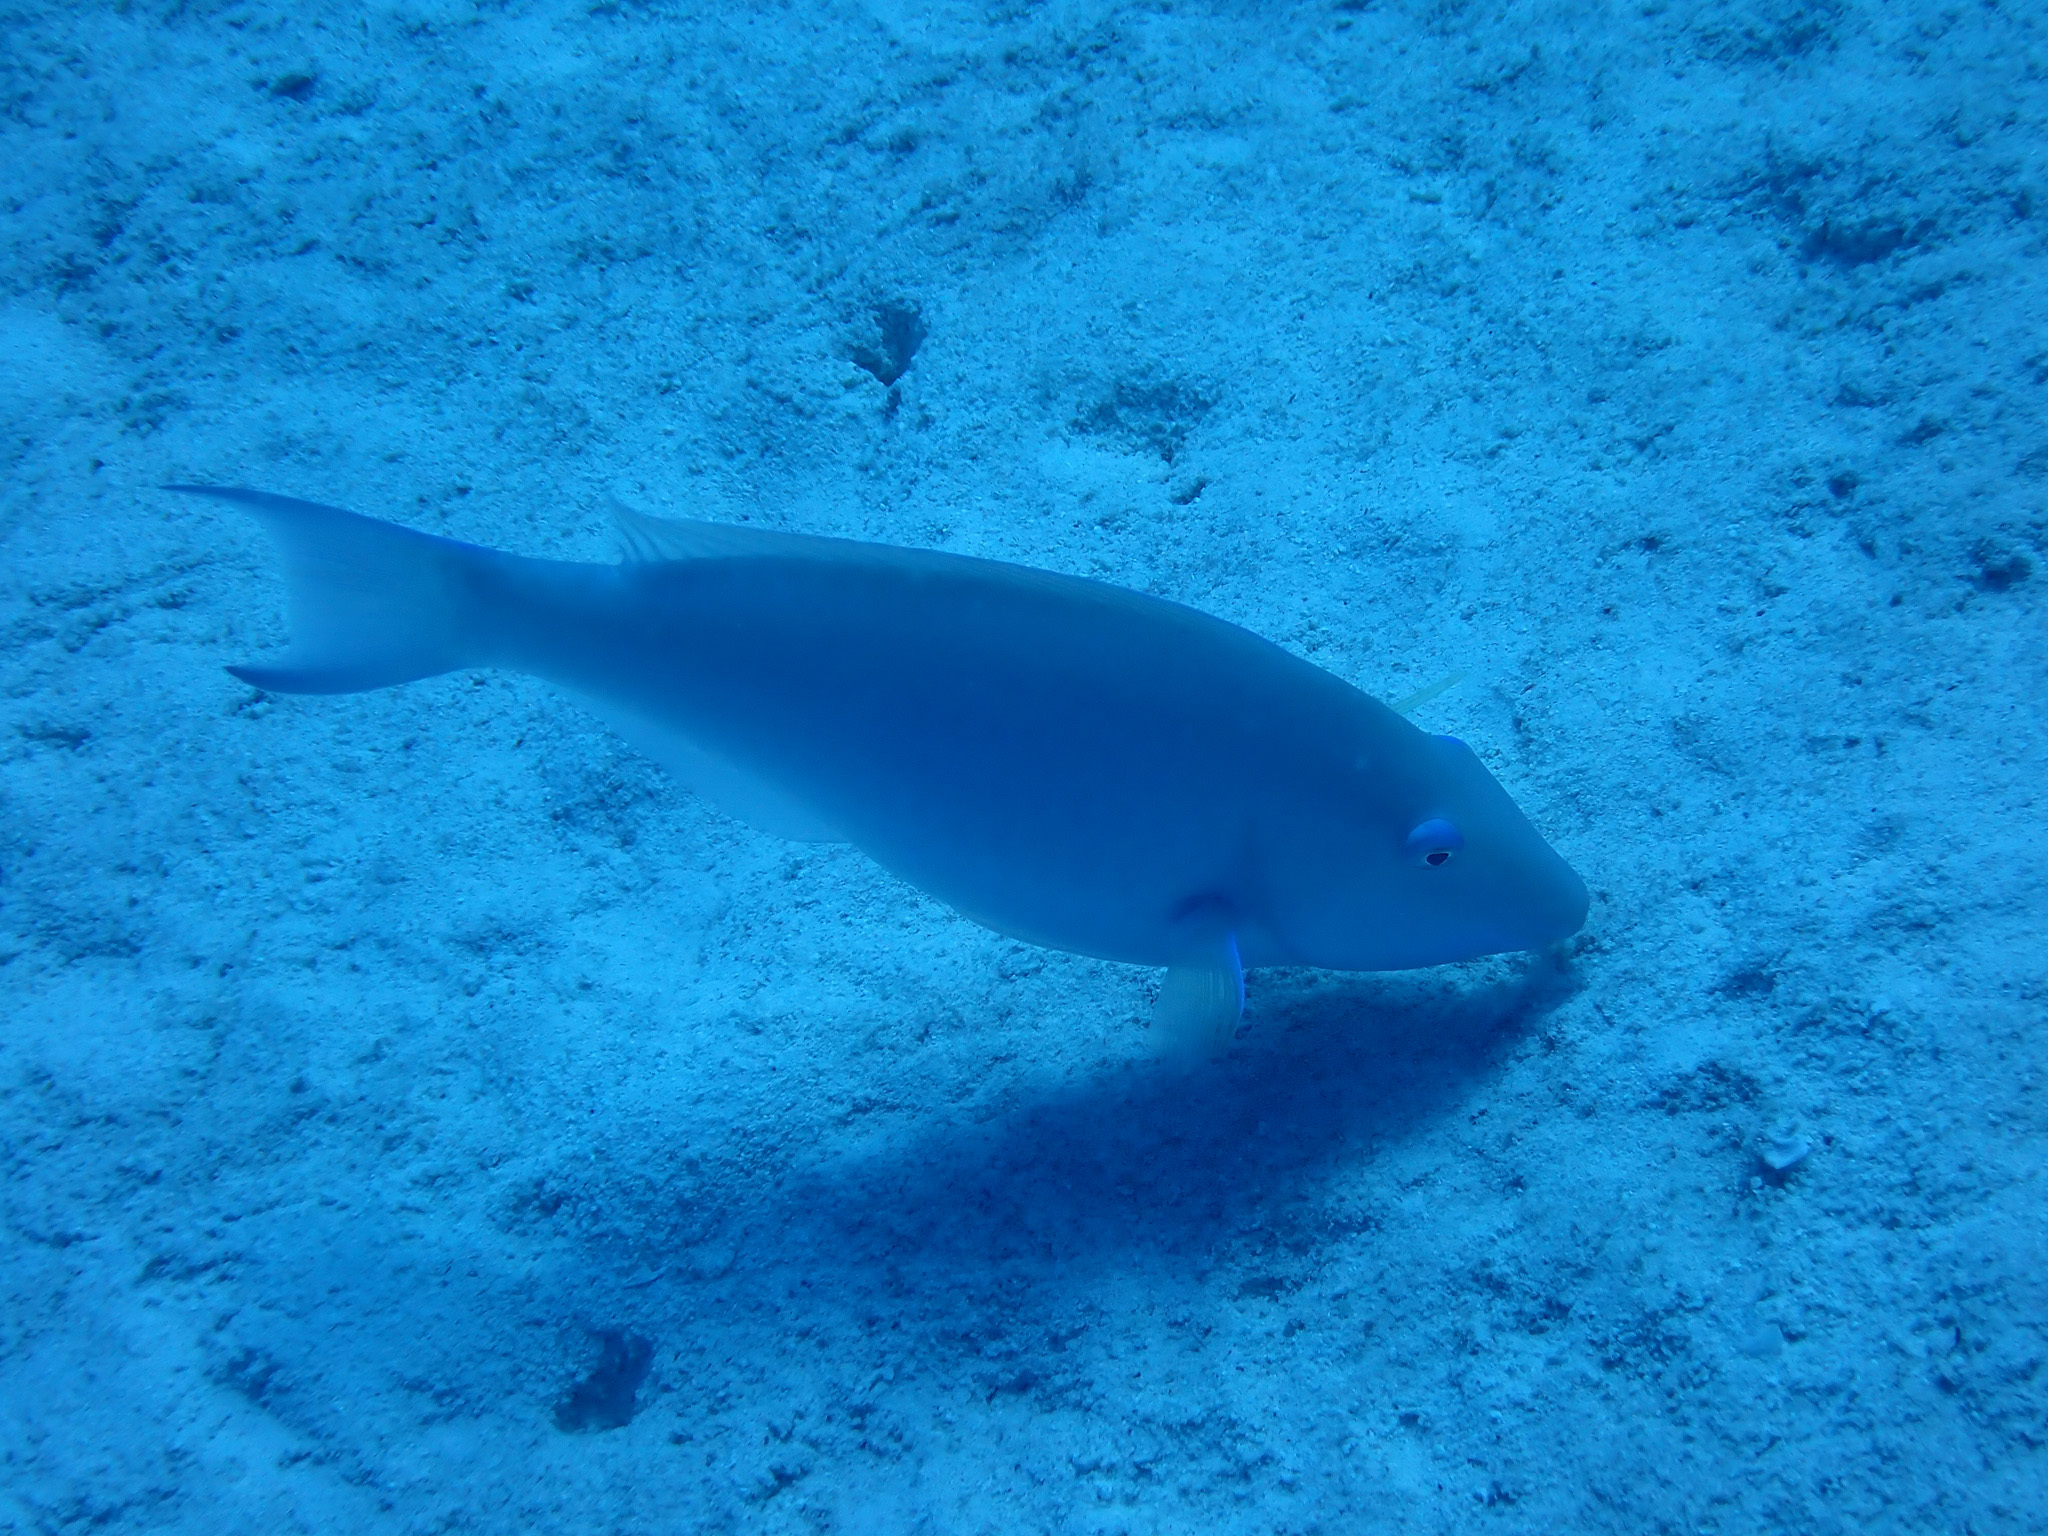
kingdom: Animalia
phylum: Chordata
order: Perciformes
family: Scaridae
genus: Hipposcarus
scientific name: Hipposcarus harid
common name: Candelamoa parrotfish
